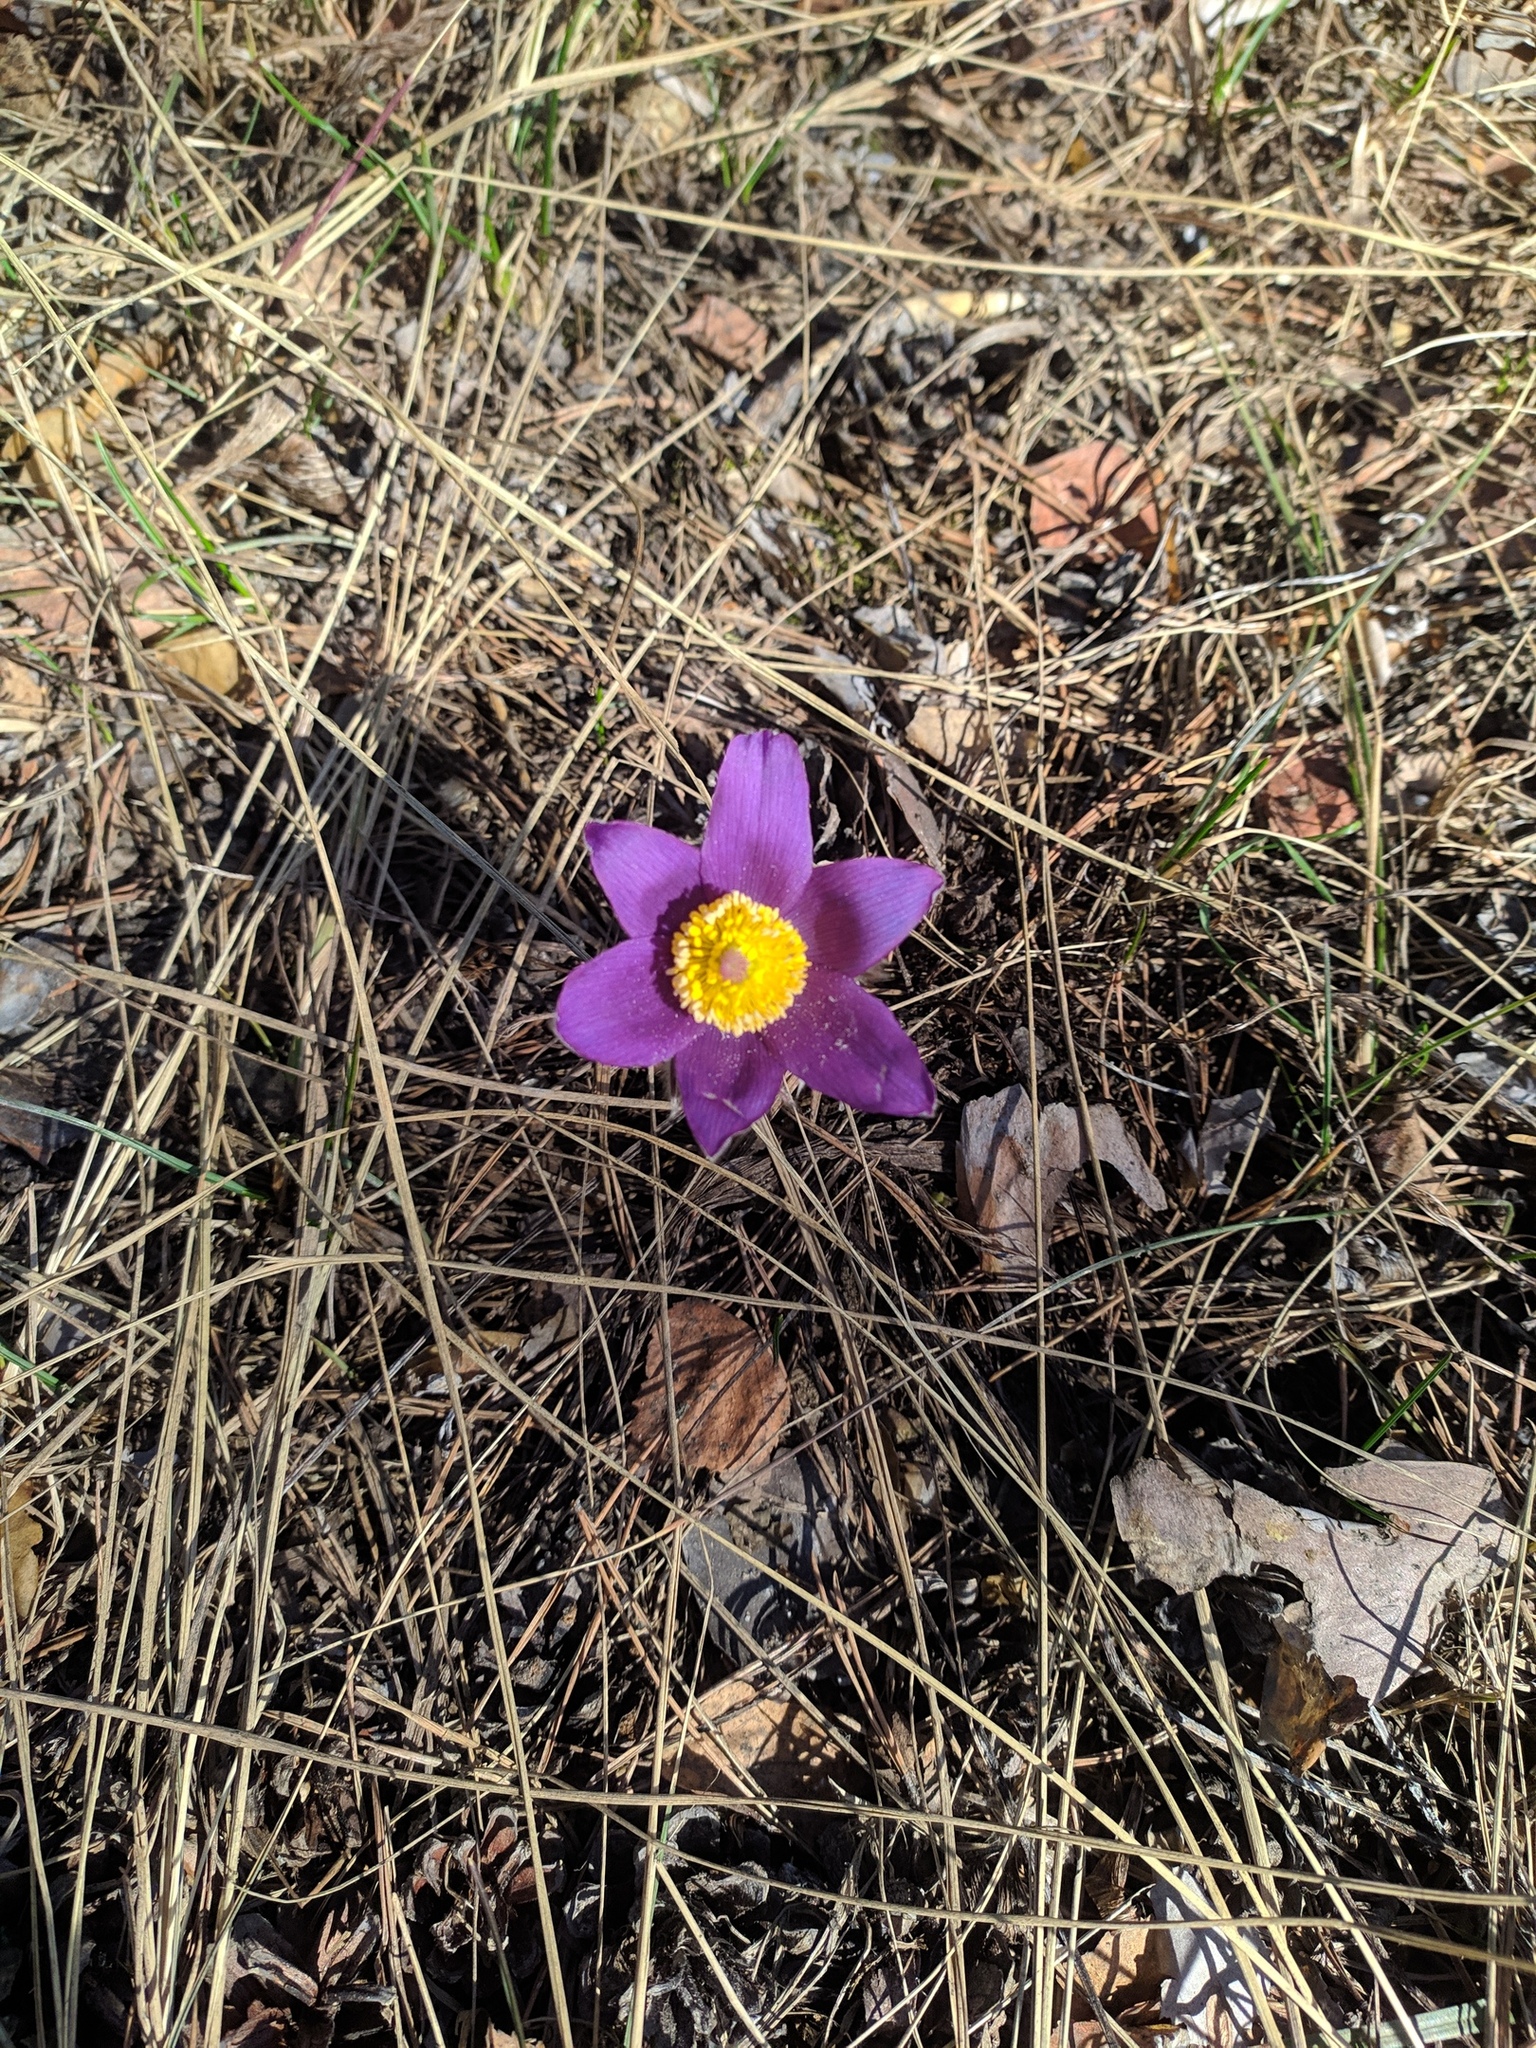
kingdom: Plantae
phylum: Tracheophyta
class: Magnoliopsida
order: Ranunculales
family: Ranunculaceae
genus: Pulsatilla
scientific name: Pulsatilla patens
